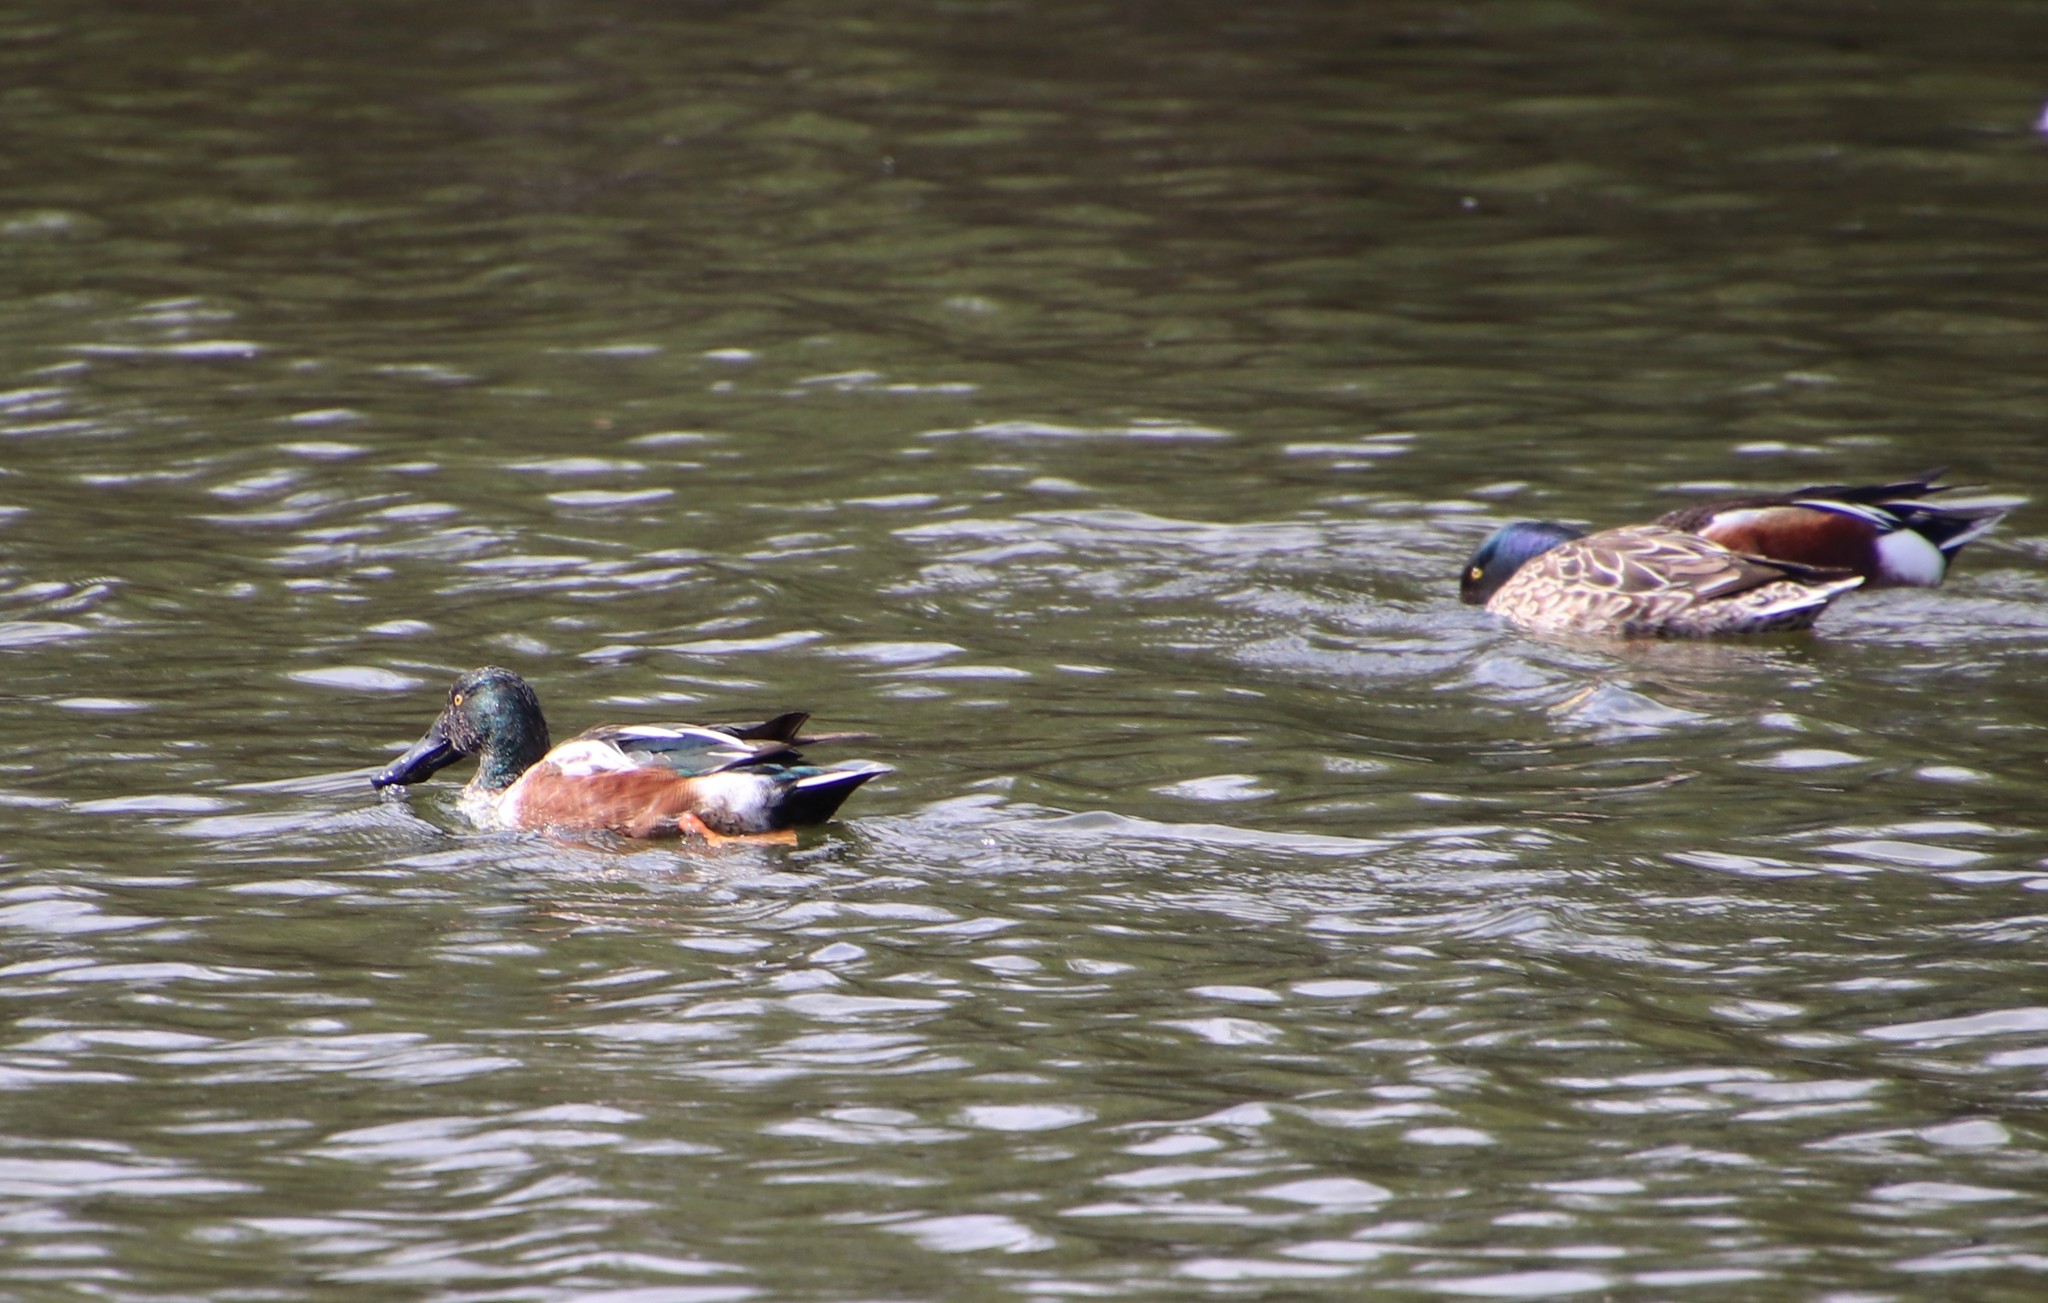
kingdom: Animalia
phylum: Chordata
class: Aves
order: Anseriformes
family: Anatidae
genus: Spatula
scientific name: Spatula clypeata
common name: Northern shoveler
